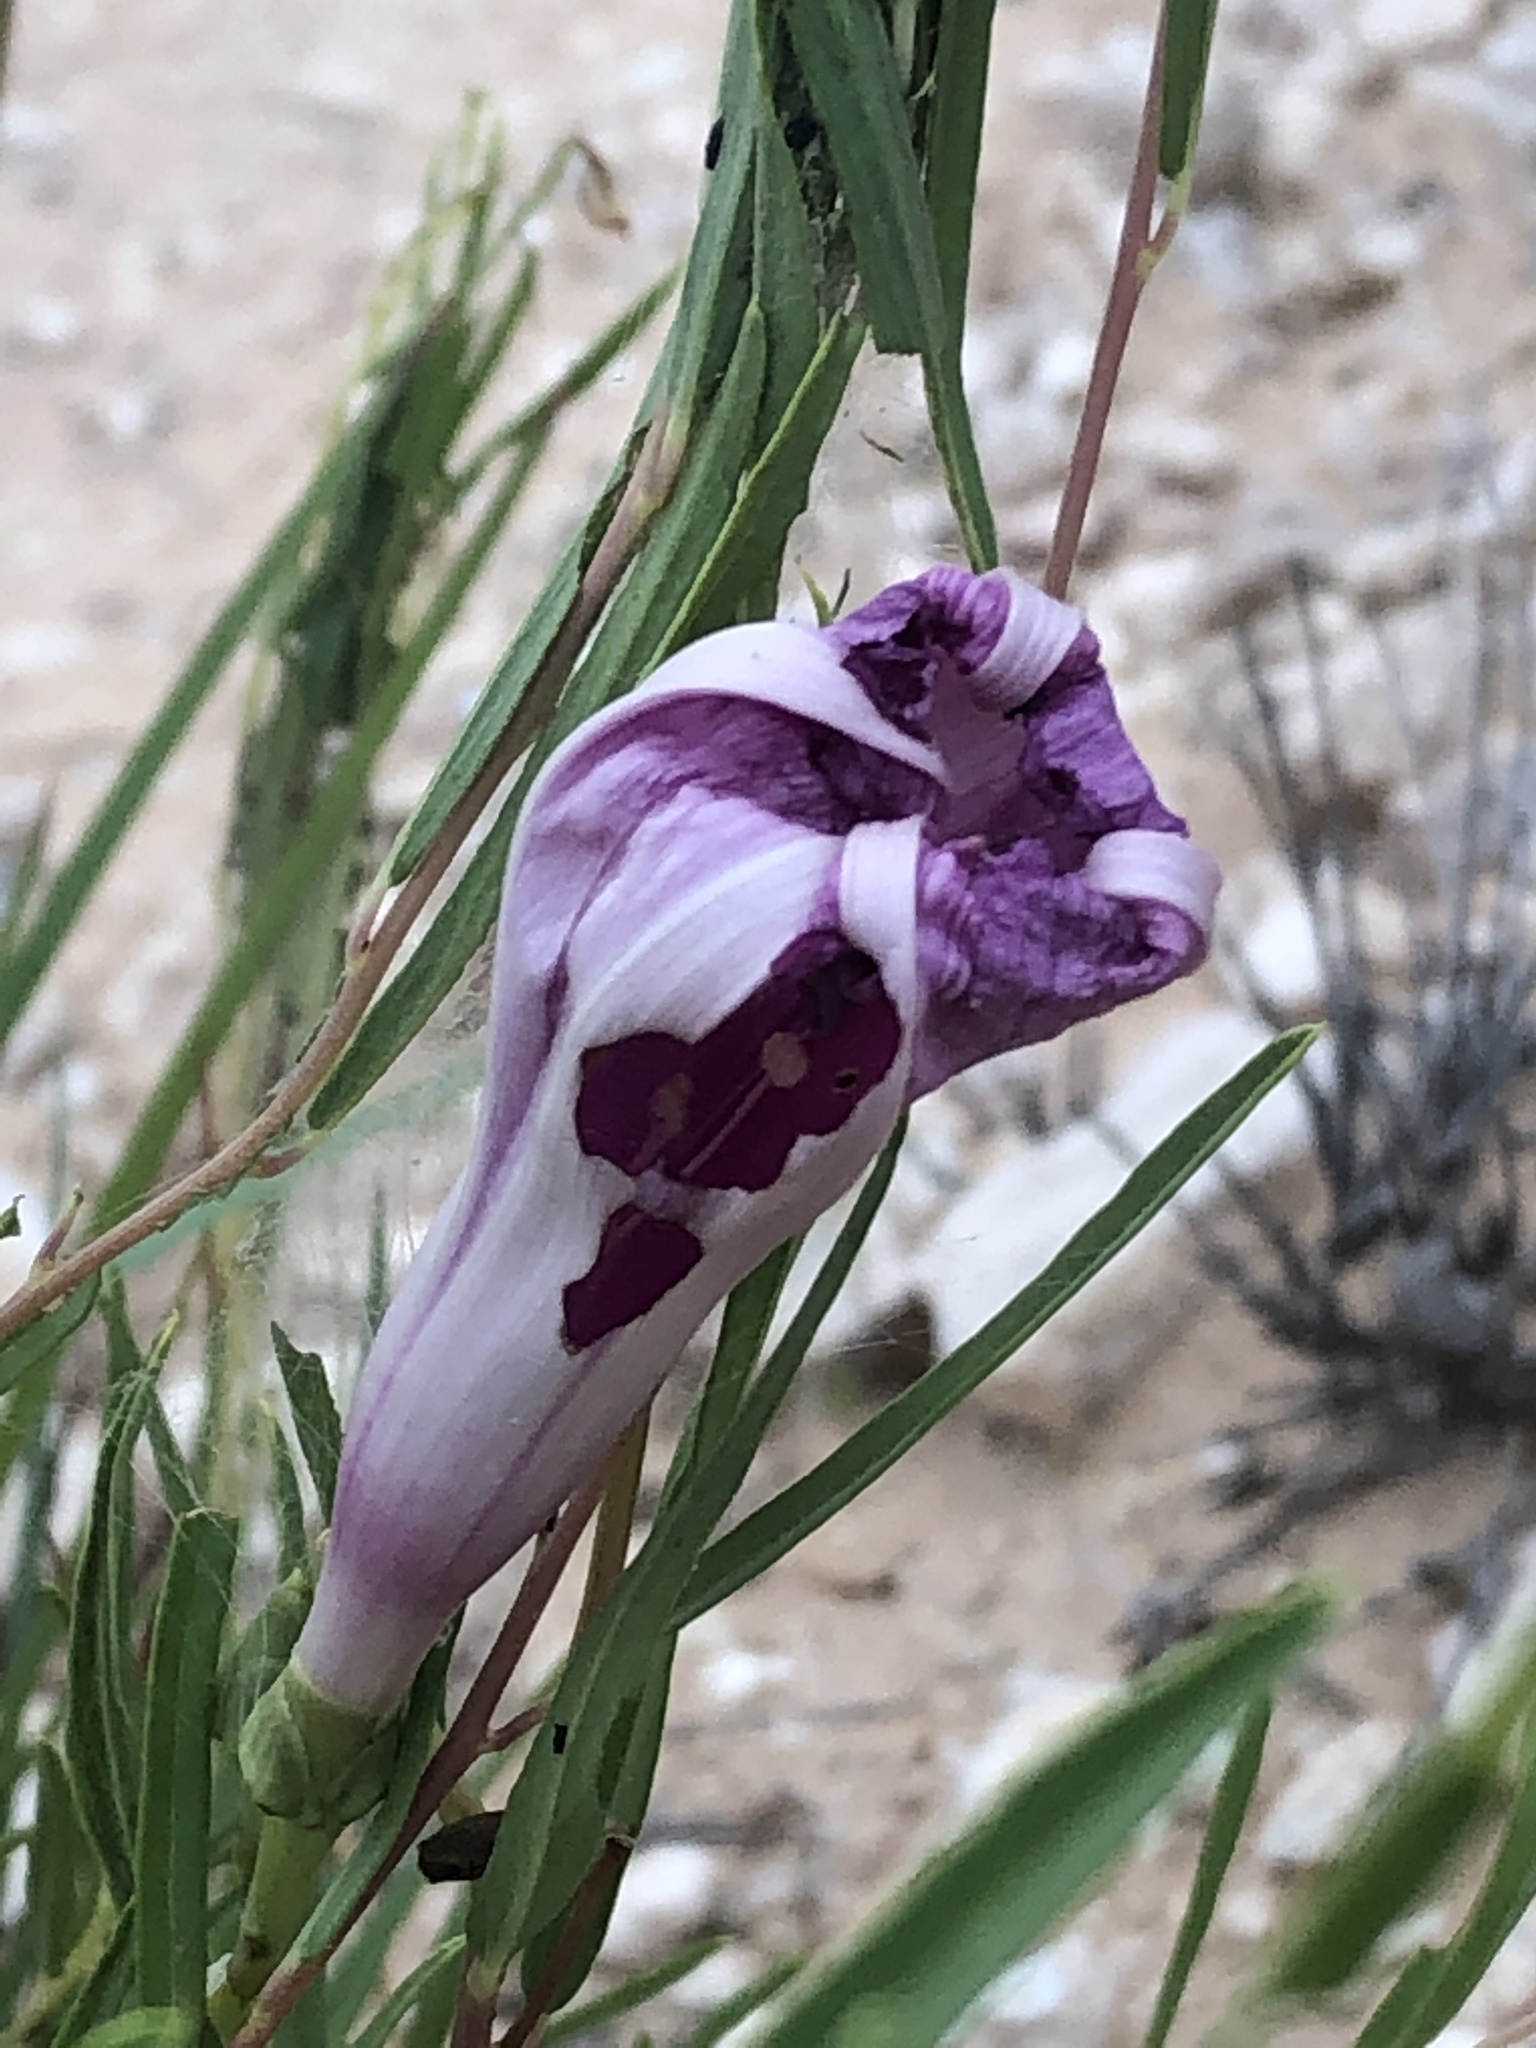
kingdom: Plantae
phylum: Tracheophyta
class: Magnoliopsida
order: Solanales
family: Convolvulaceae
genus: Ipomoea
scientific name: Ipomoea leptophylla
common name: Bush moonflower
